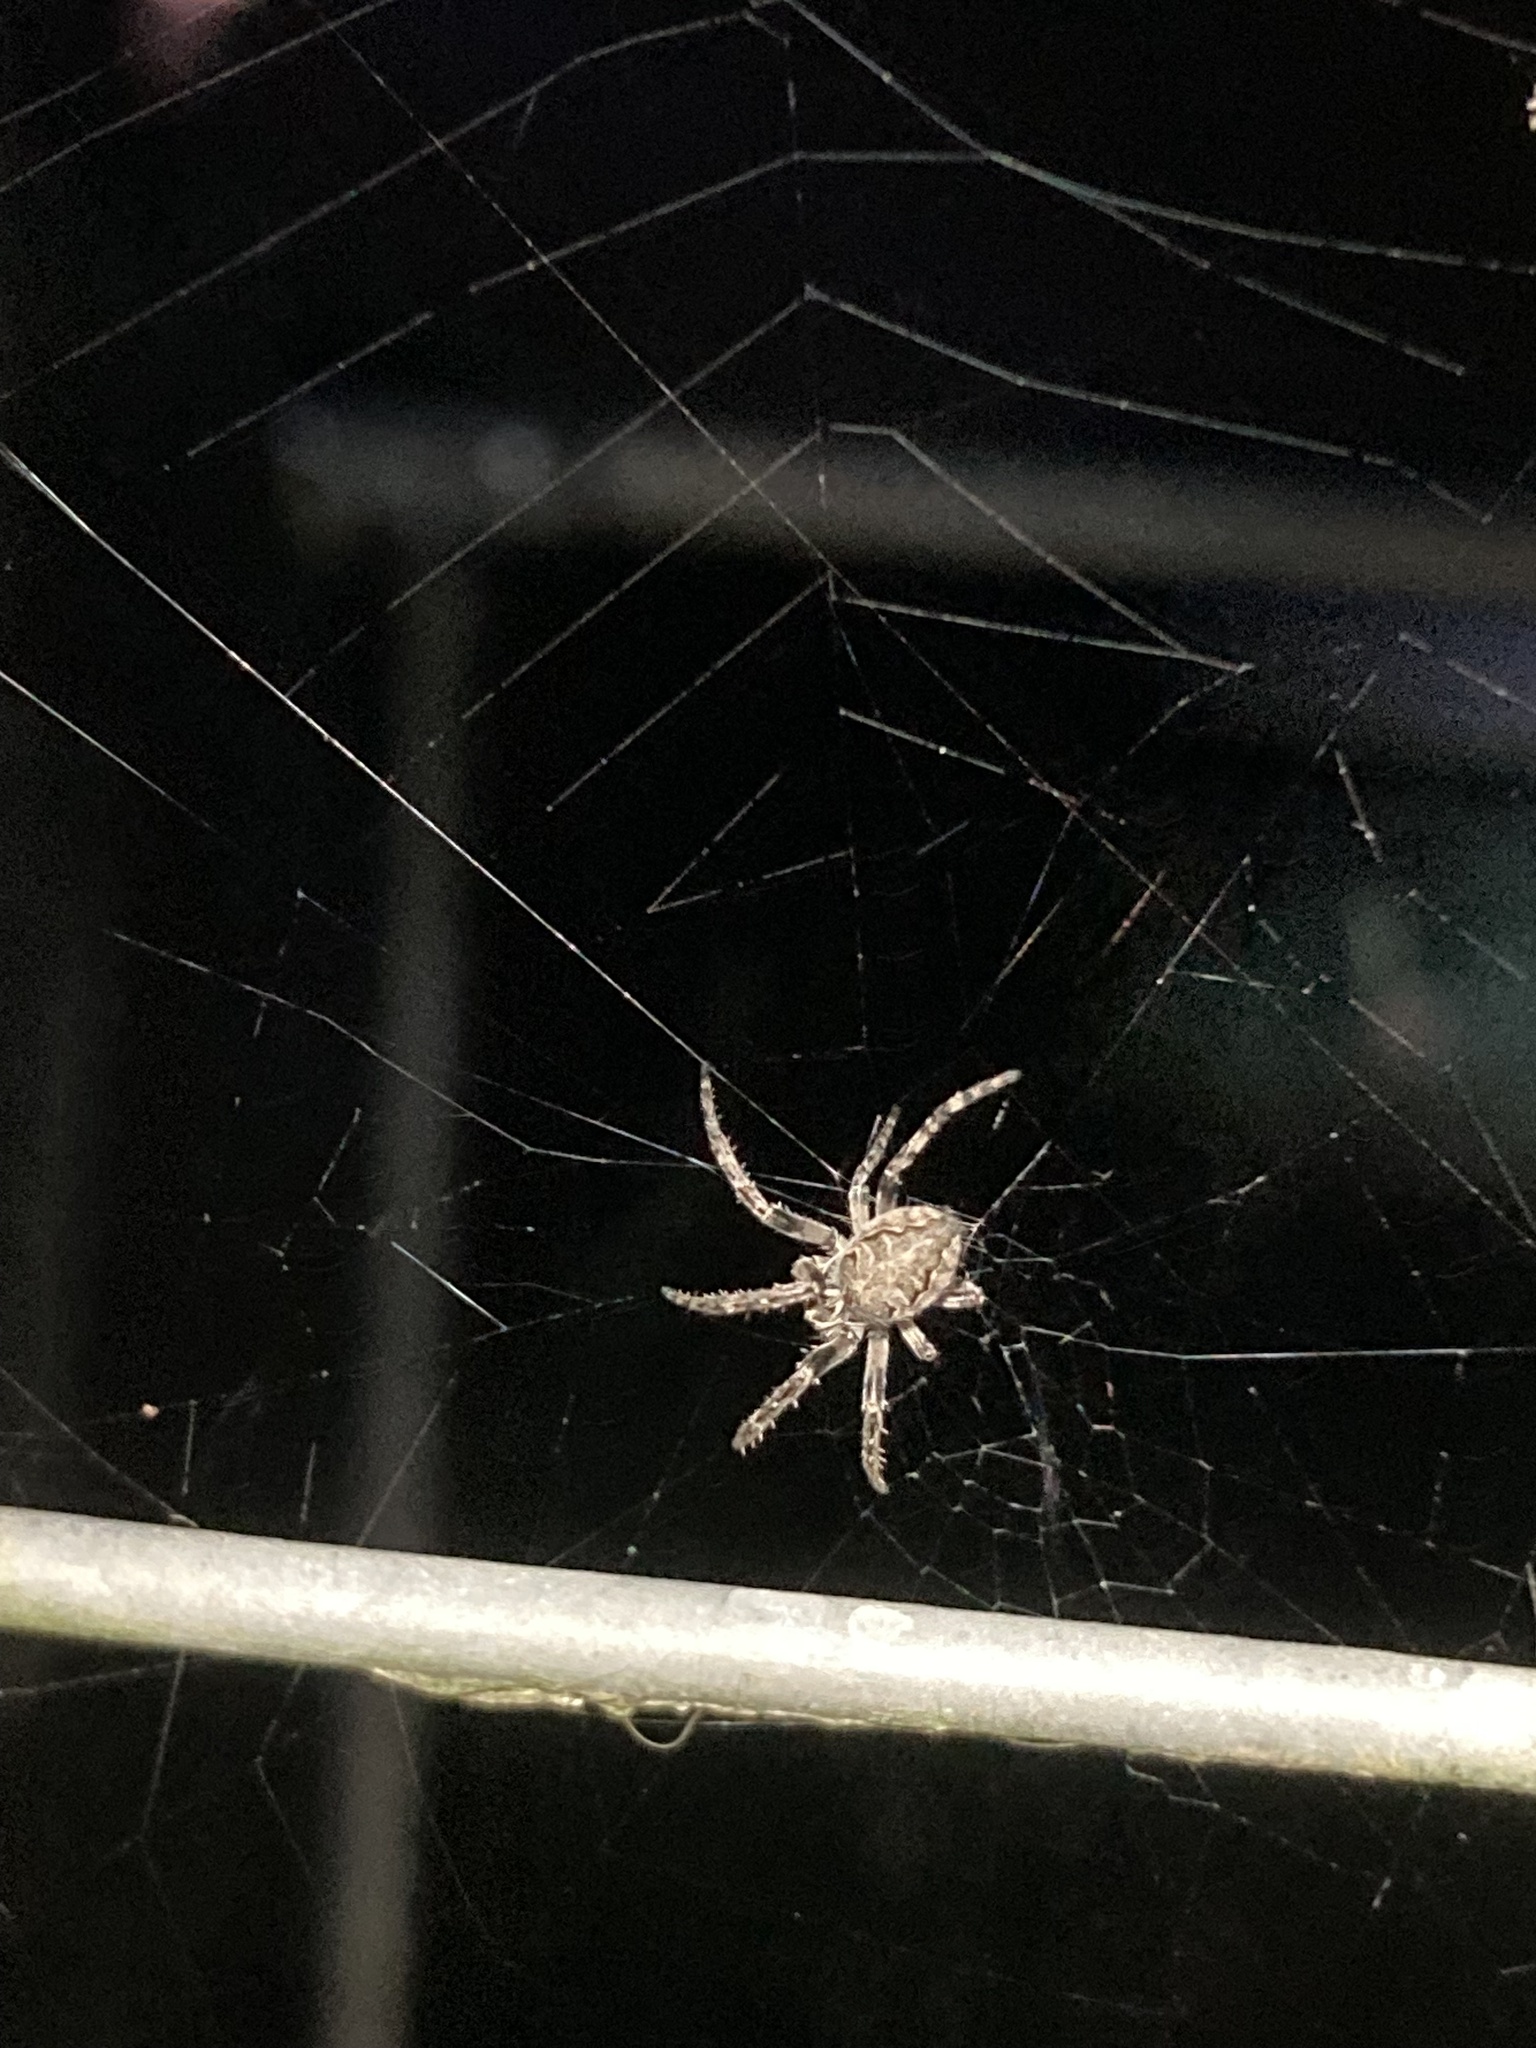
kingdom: Animalia
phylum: Arthropoda
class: Arachnida
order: Araneae
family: Araneidae
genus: Nuctenea
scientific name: Nuctenea umbratica
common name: Toad spider
